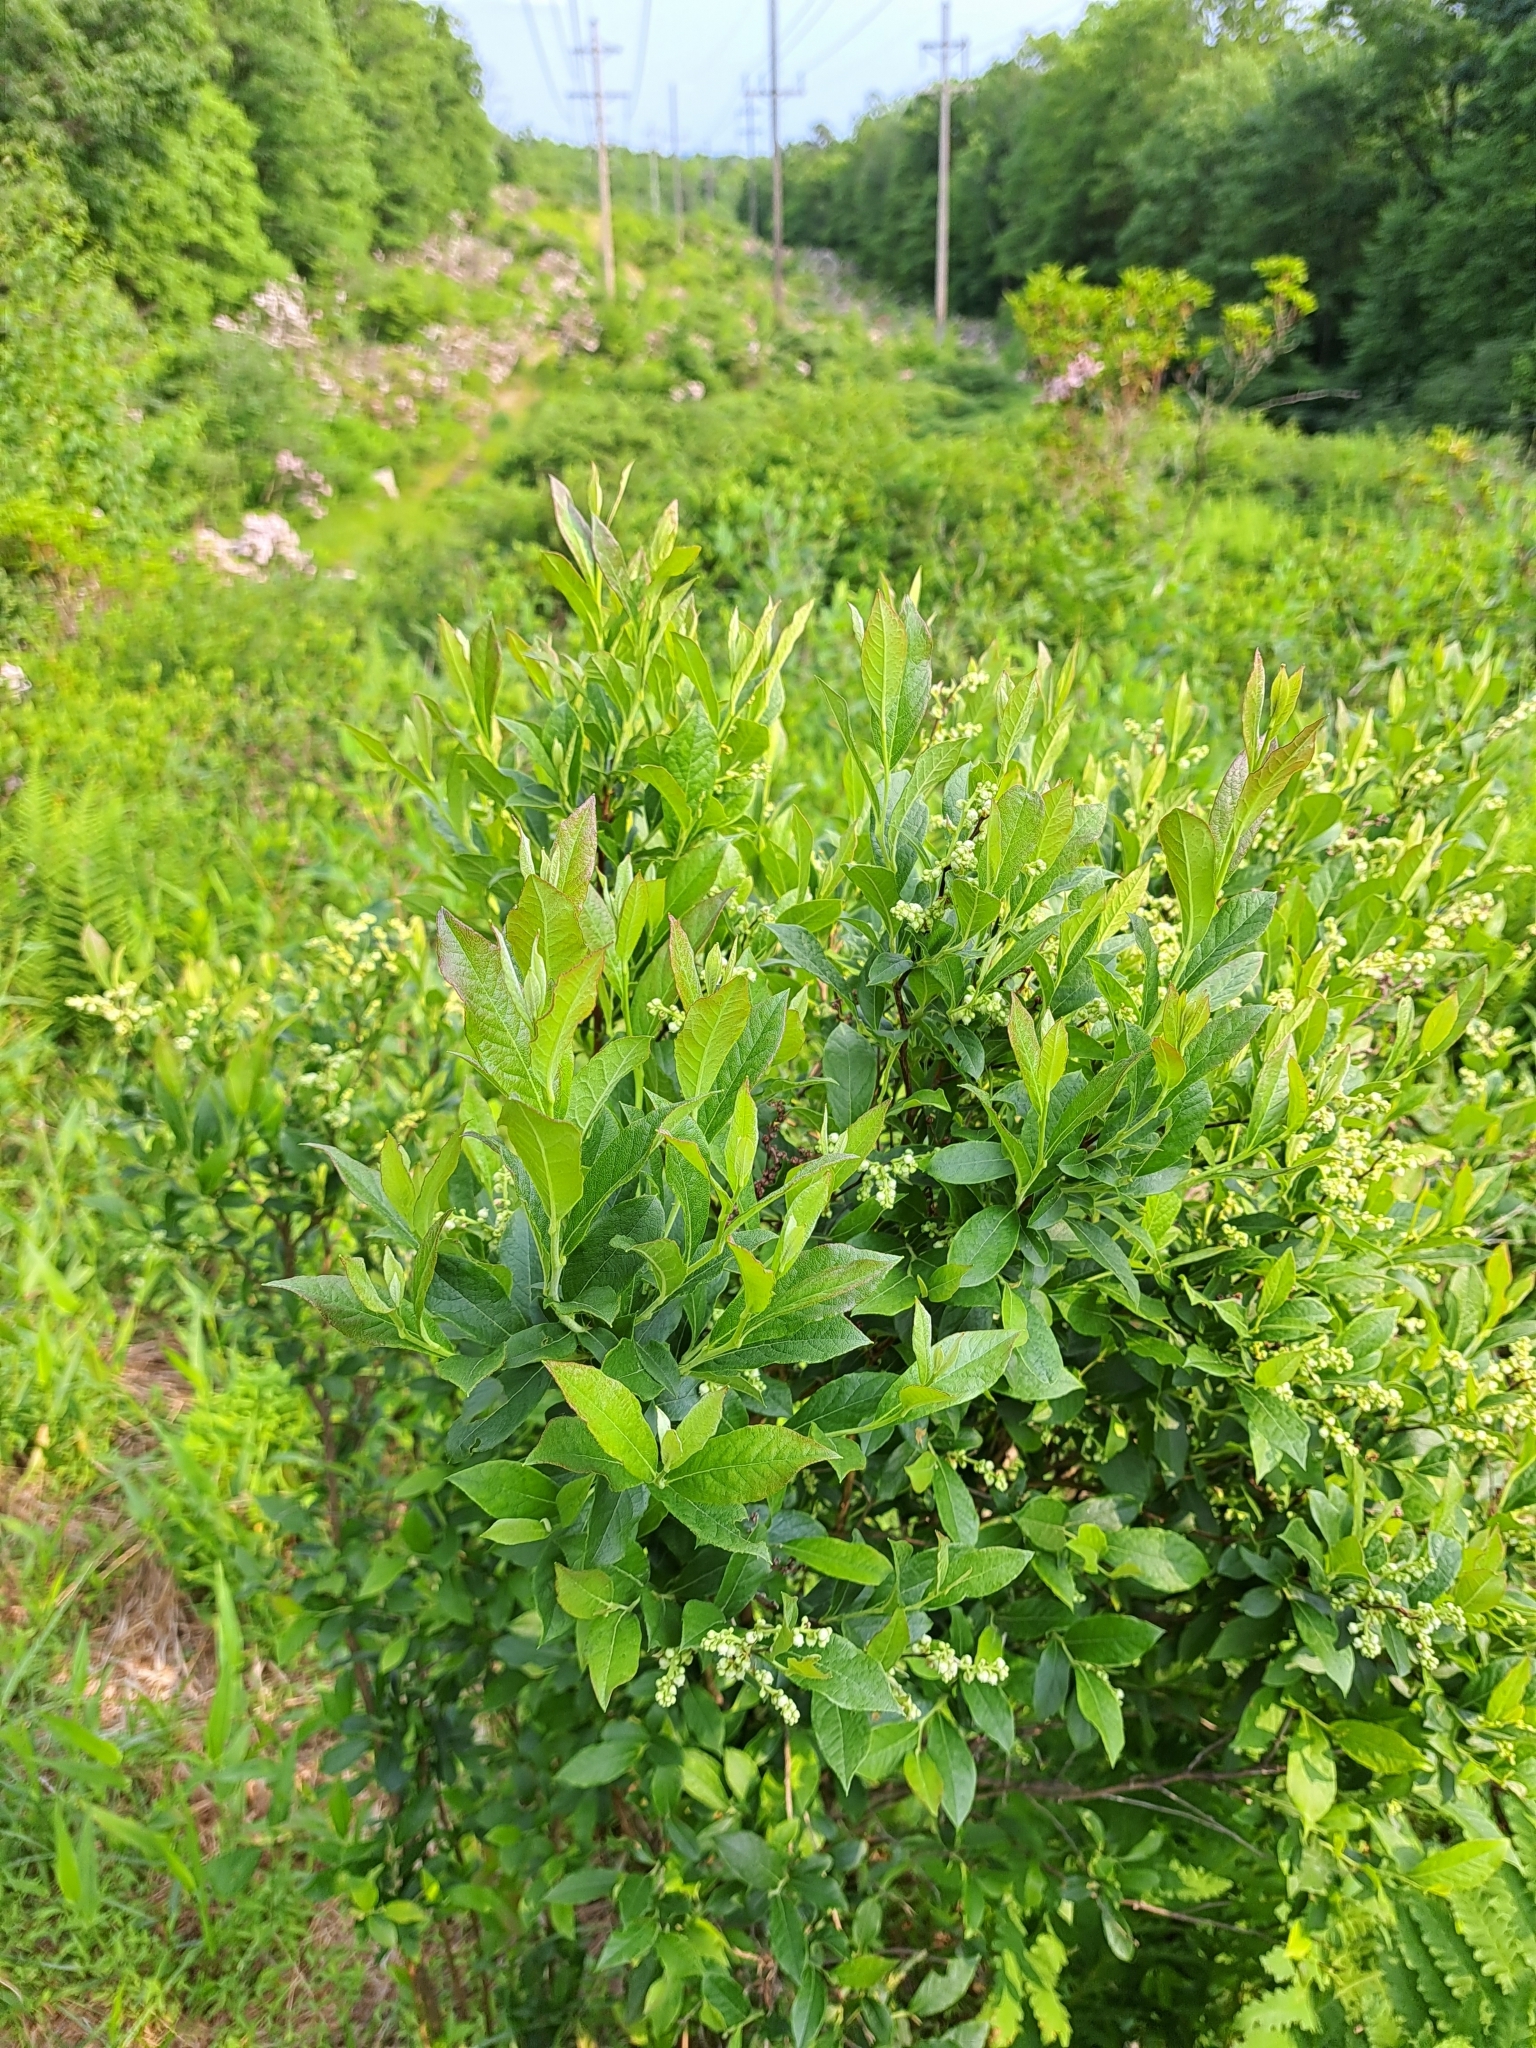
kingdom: Plantae
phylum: Tracheophyta
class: Magnoliopsida
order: Ericales
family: Ericaceae
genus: Lyonia
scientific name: Lyonia ligustrina
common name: Maleberry
